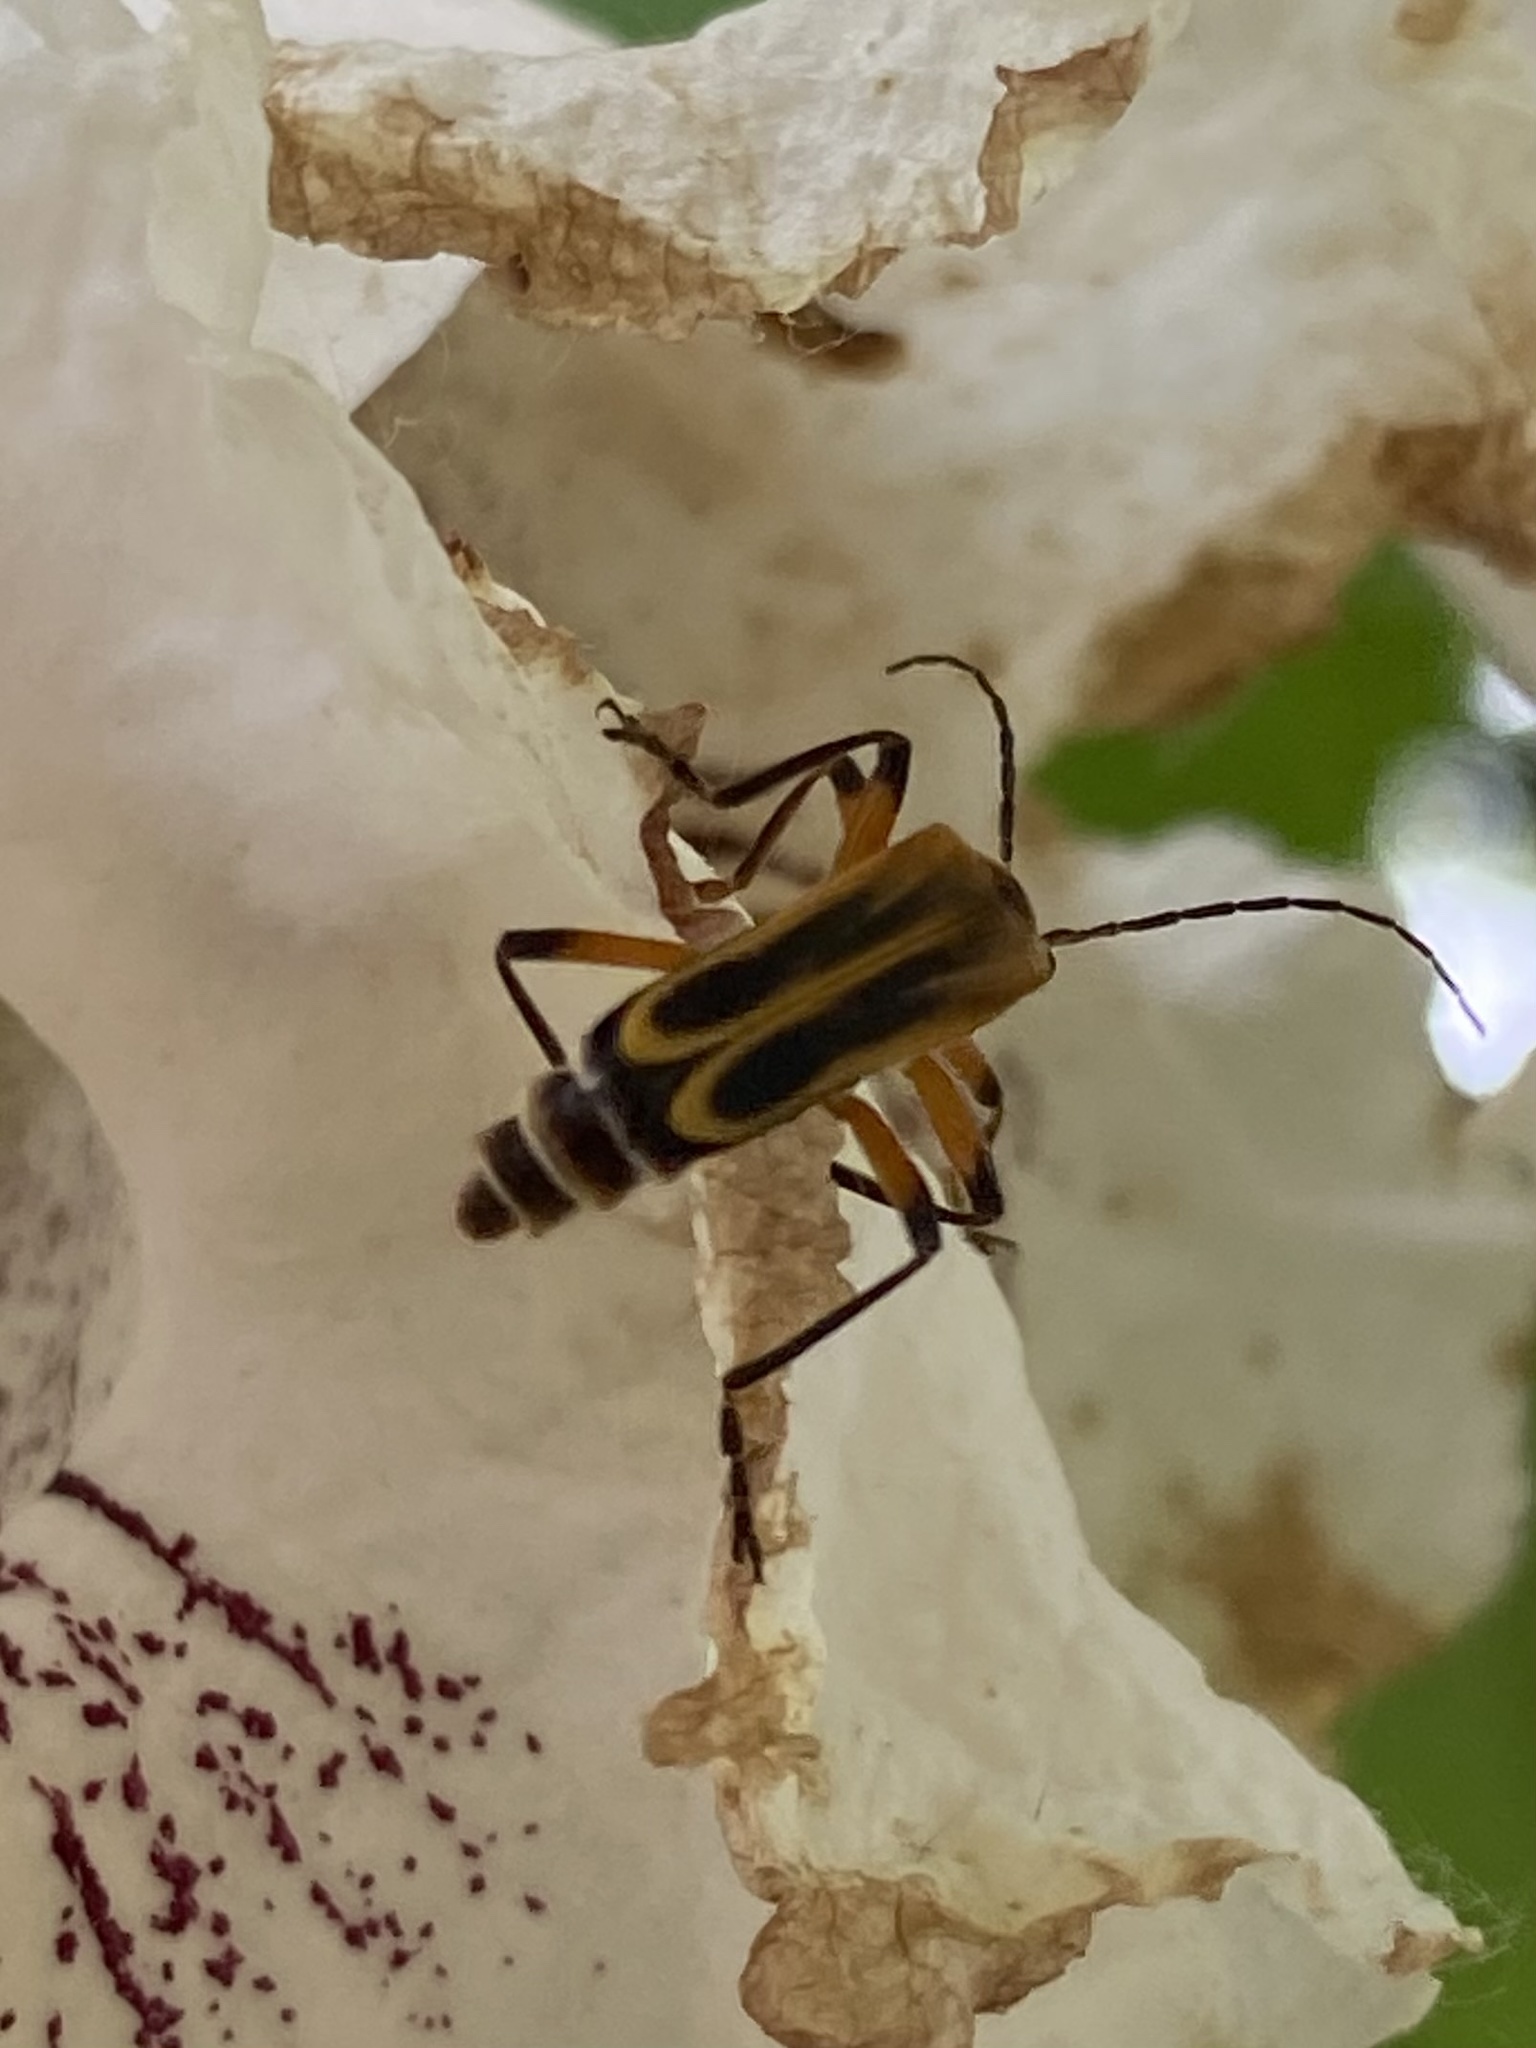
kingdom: Animalia
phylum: Arthropoda
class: Insecta
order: Coleoptera
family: Cantharidae
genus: Chauliognathus
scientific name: Chauliognathus marginatus
